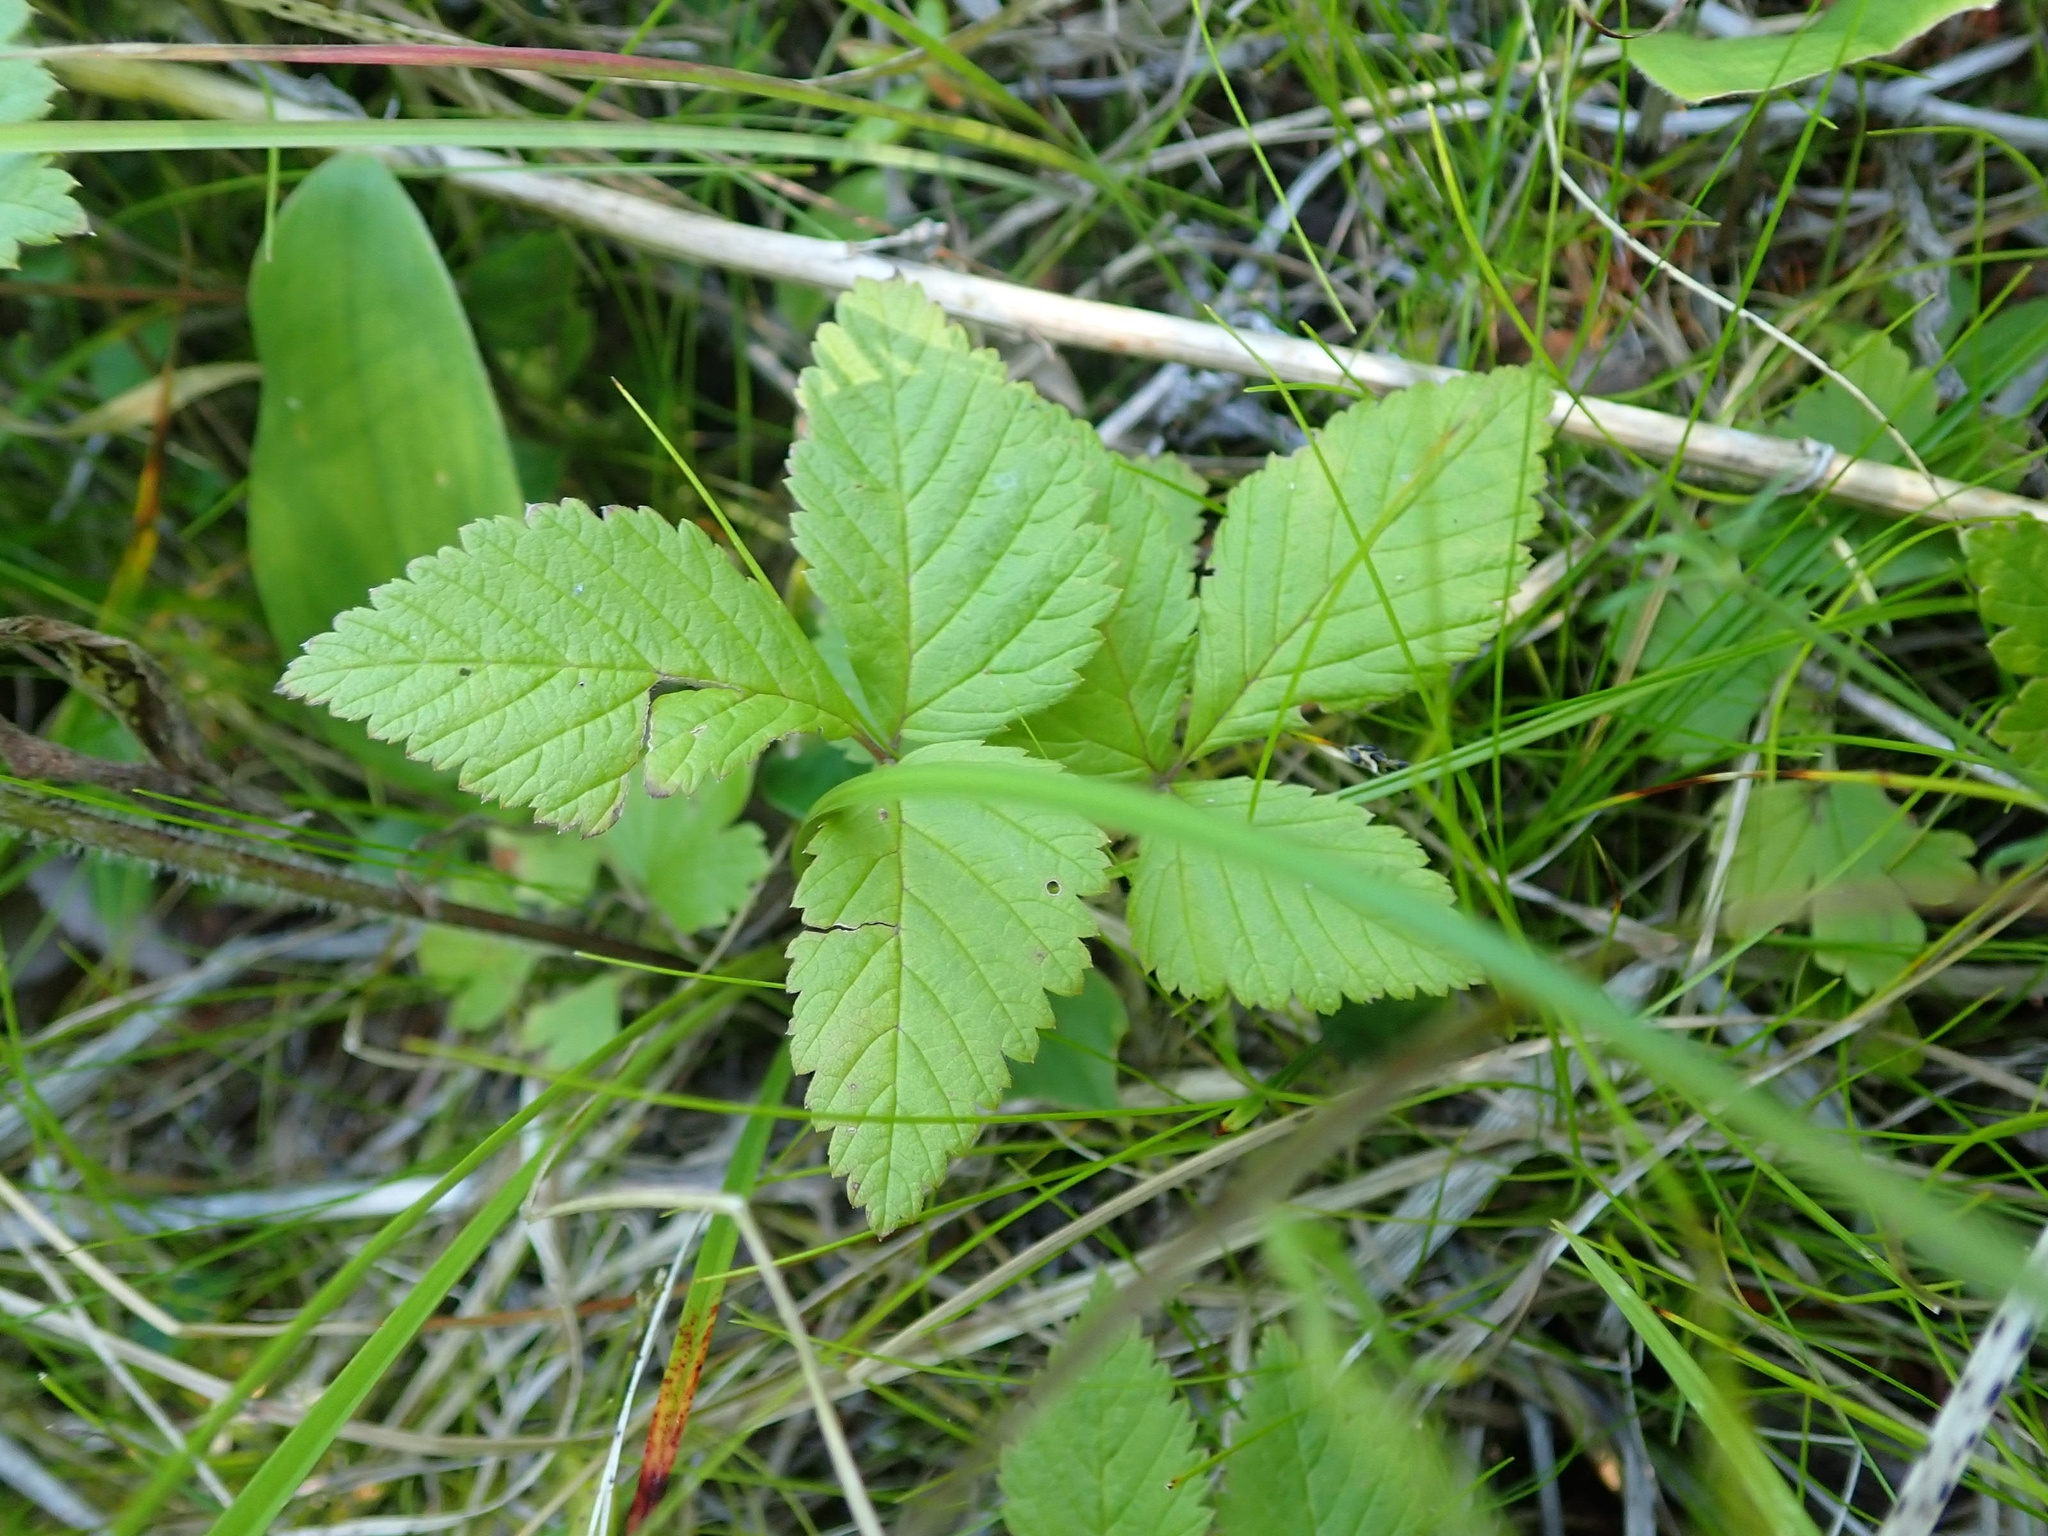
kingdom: Plantae
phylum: Tracheophyta
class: Magnoliopsida
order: Rosales
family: Rosaceae
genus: Rubus
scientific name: Rubus pubescens
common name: Dwarf raspberry
